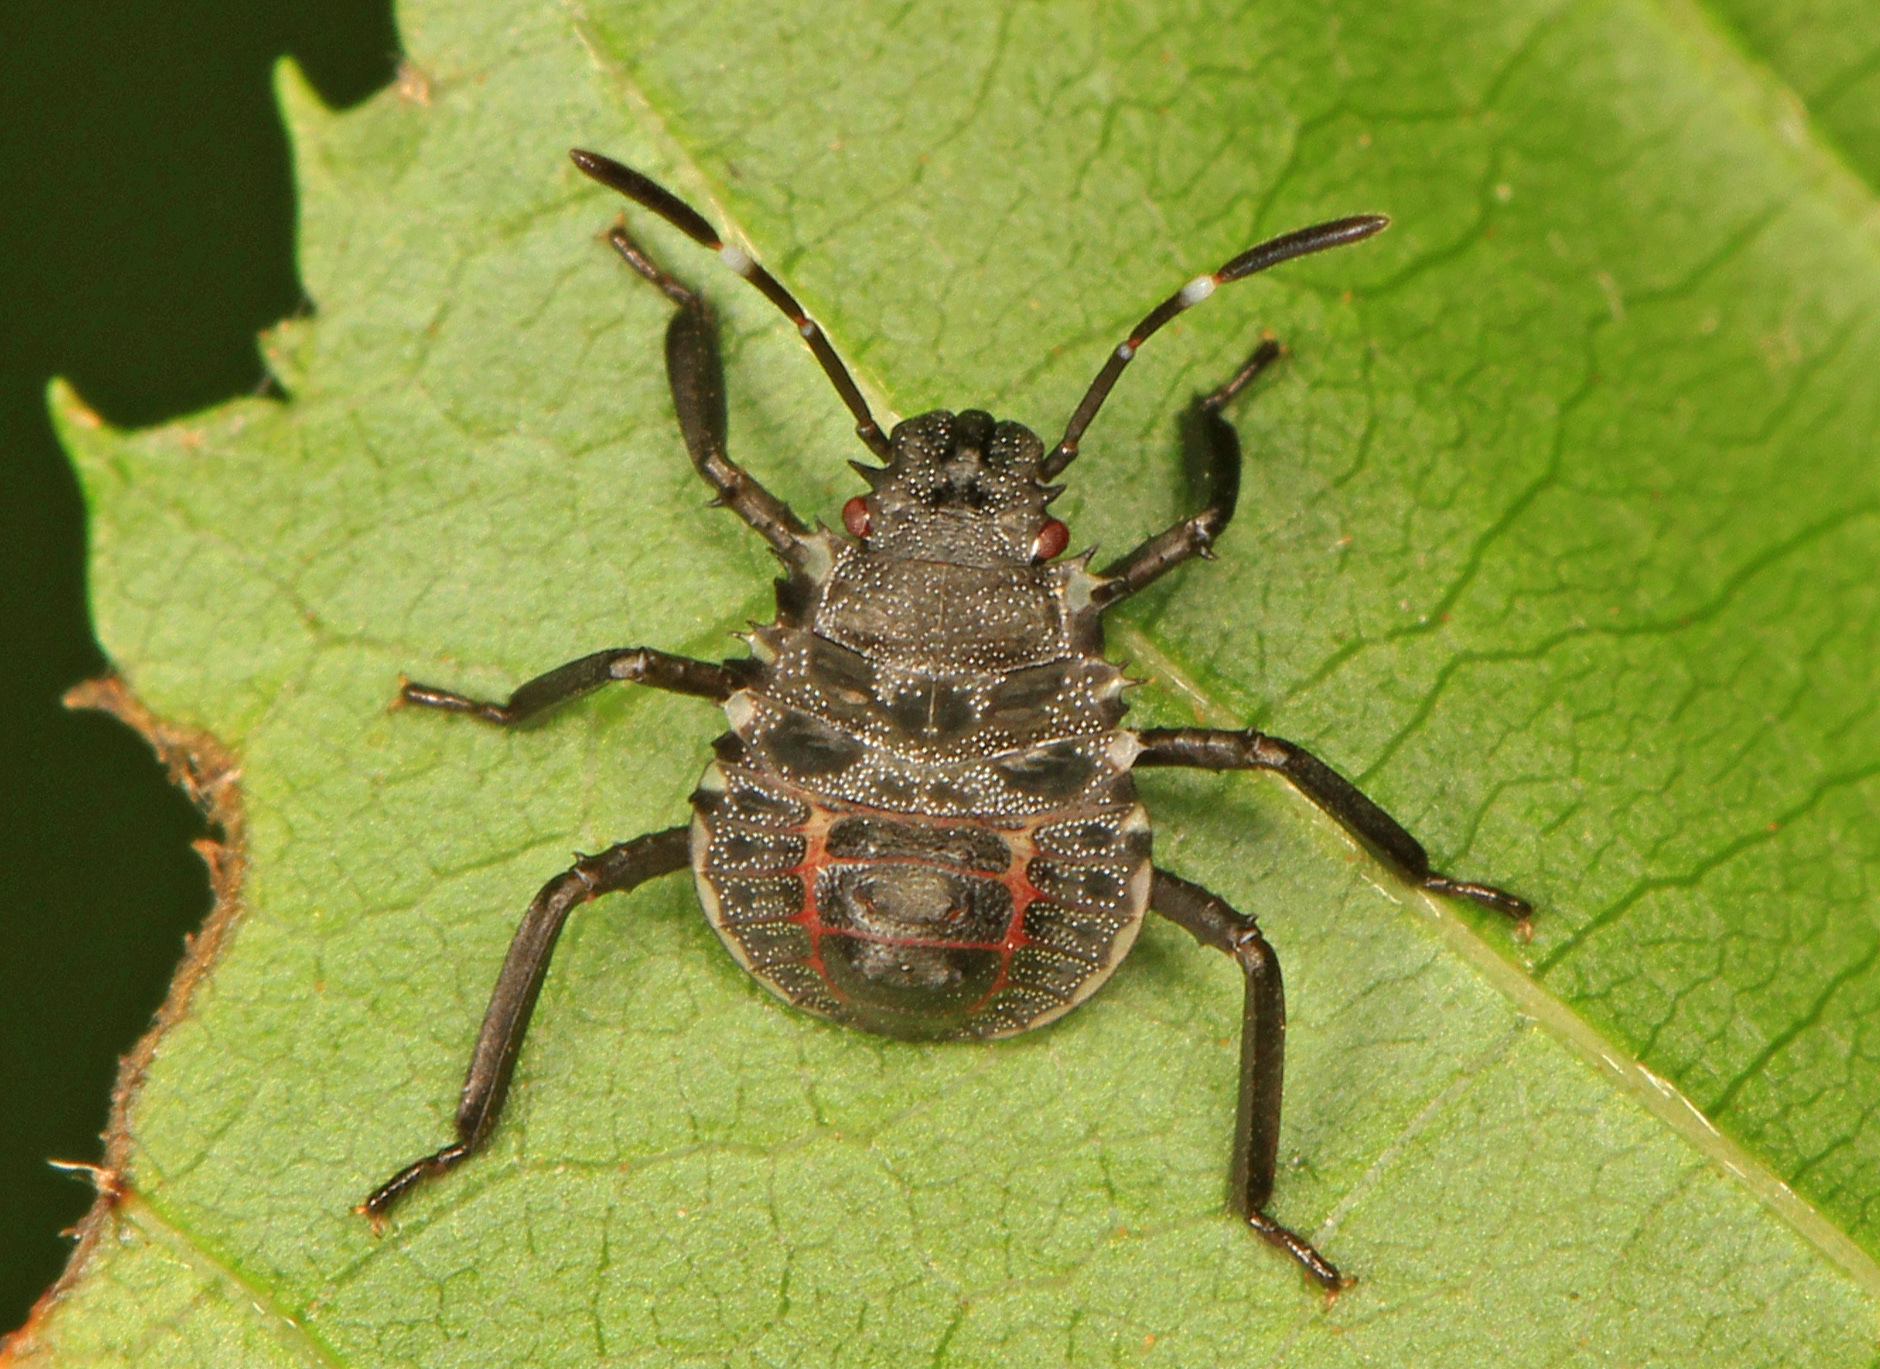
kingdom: Animalia
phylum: Arthropoda
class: Insecta
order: Hemiptera
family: Pentatomidae
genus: Halyomorpha
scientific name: Halyomorpha halys
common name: Brown marmorated stink bug
